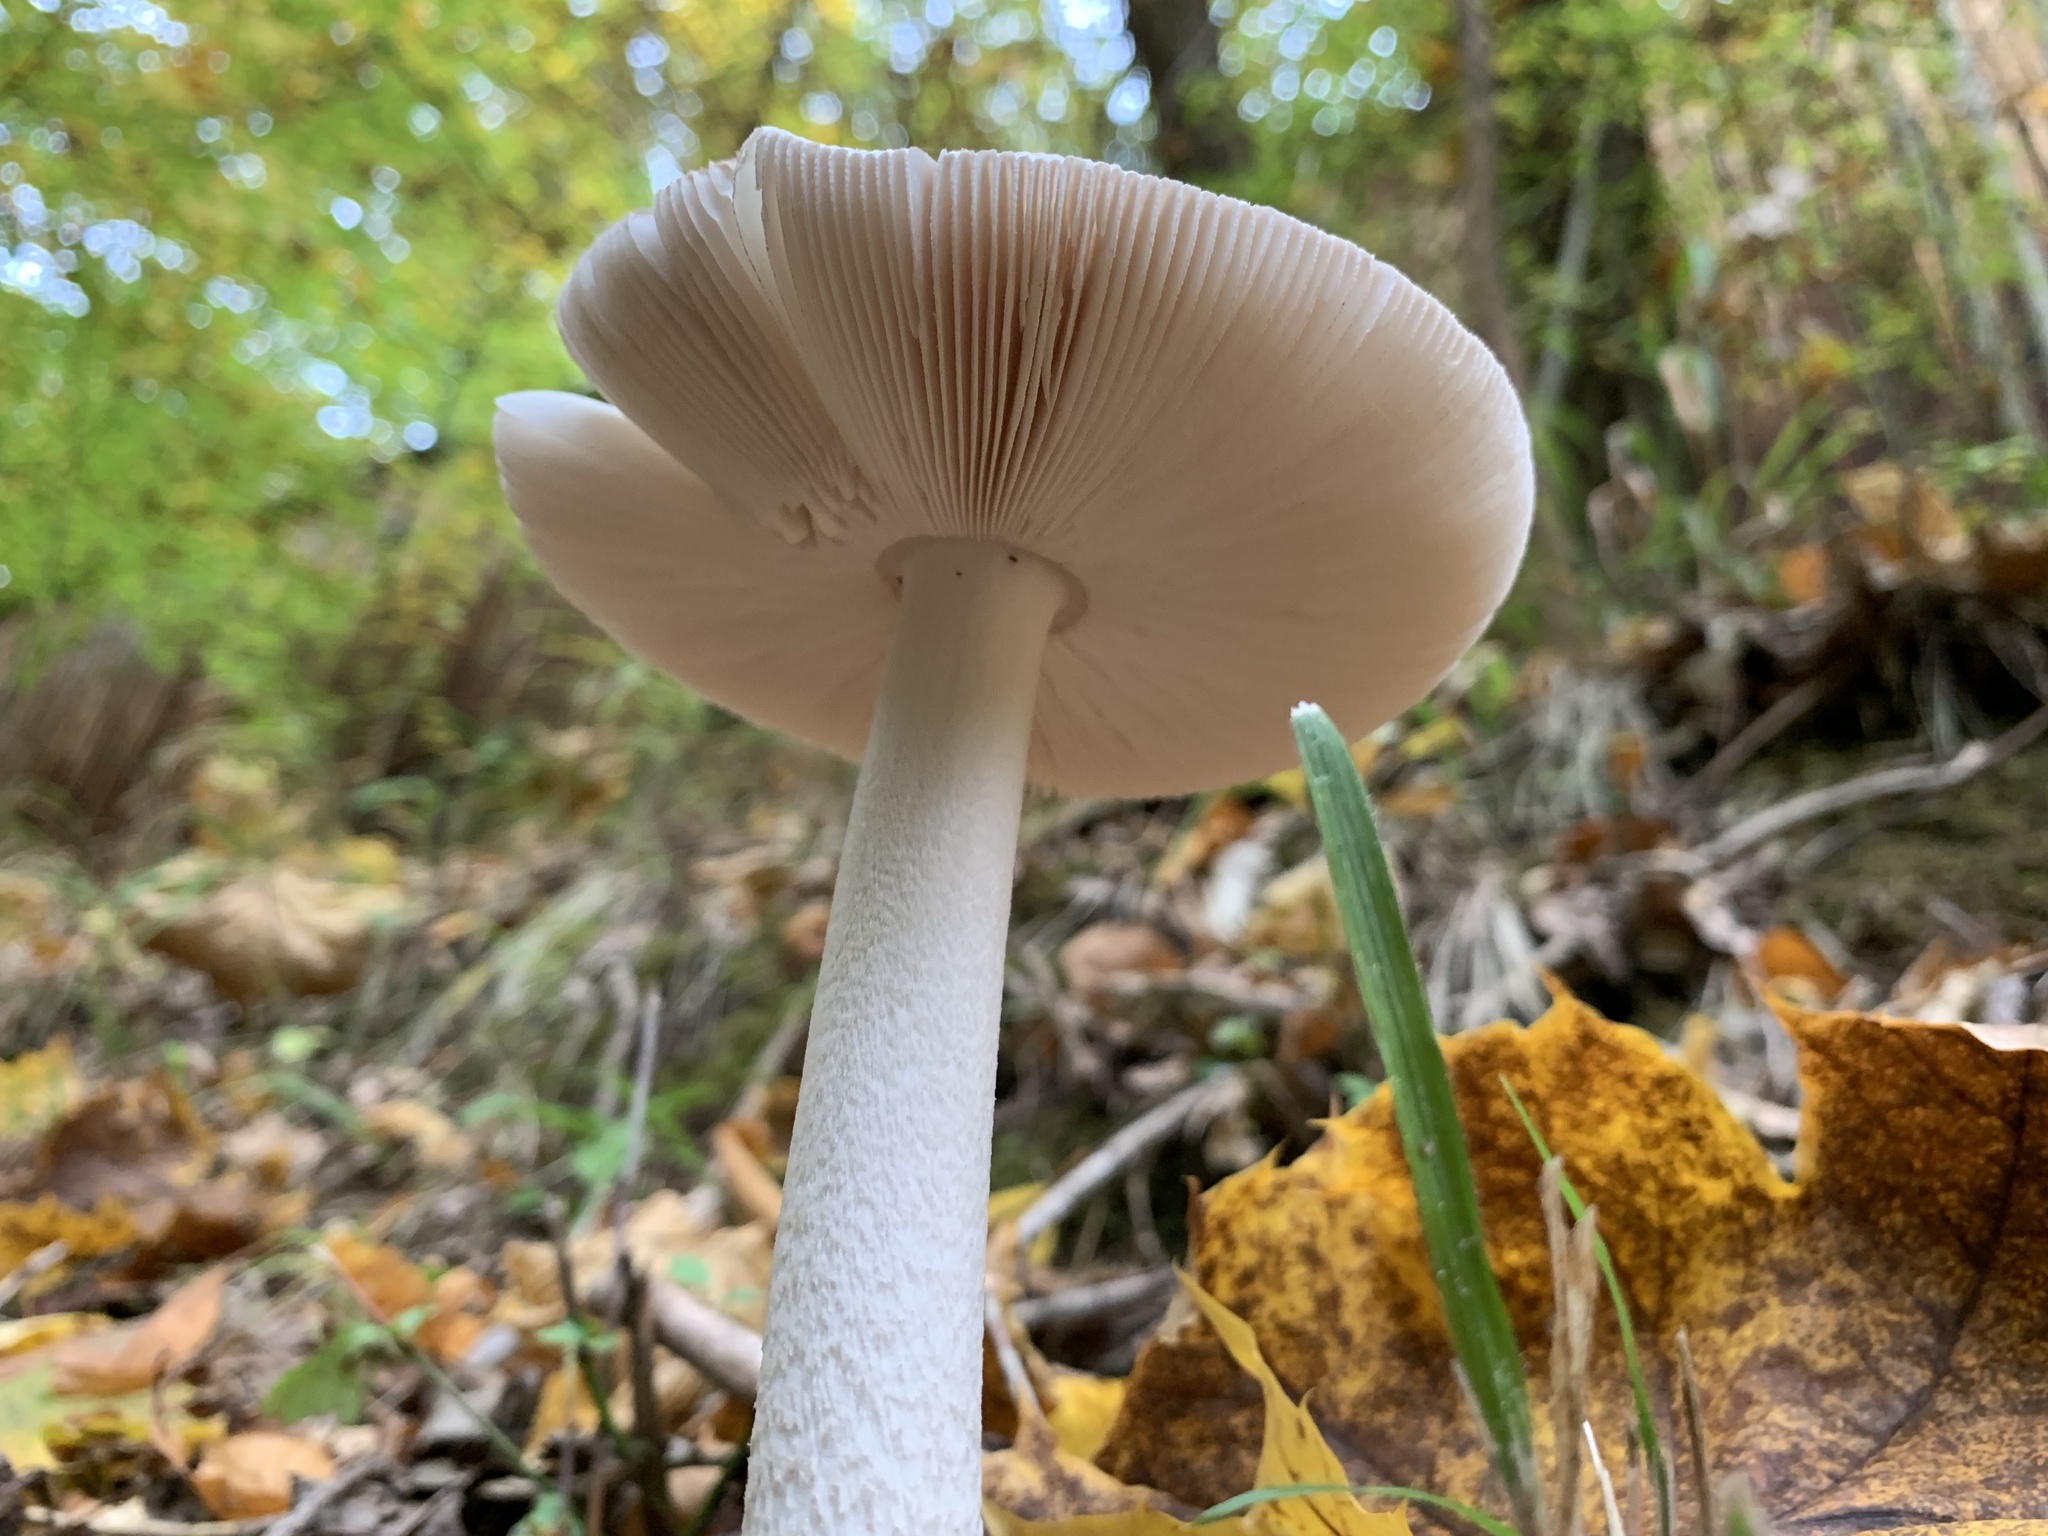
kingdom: Fungi
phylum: Basidiomycota
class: Agaricomycetes
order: Agaricales
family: Amanitaceae
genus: Amanita
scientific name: Amanita
